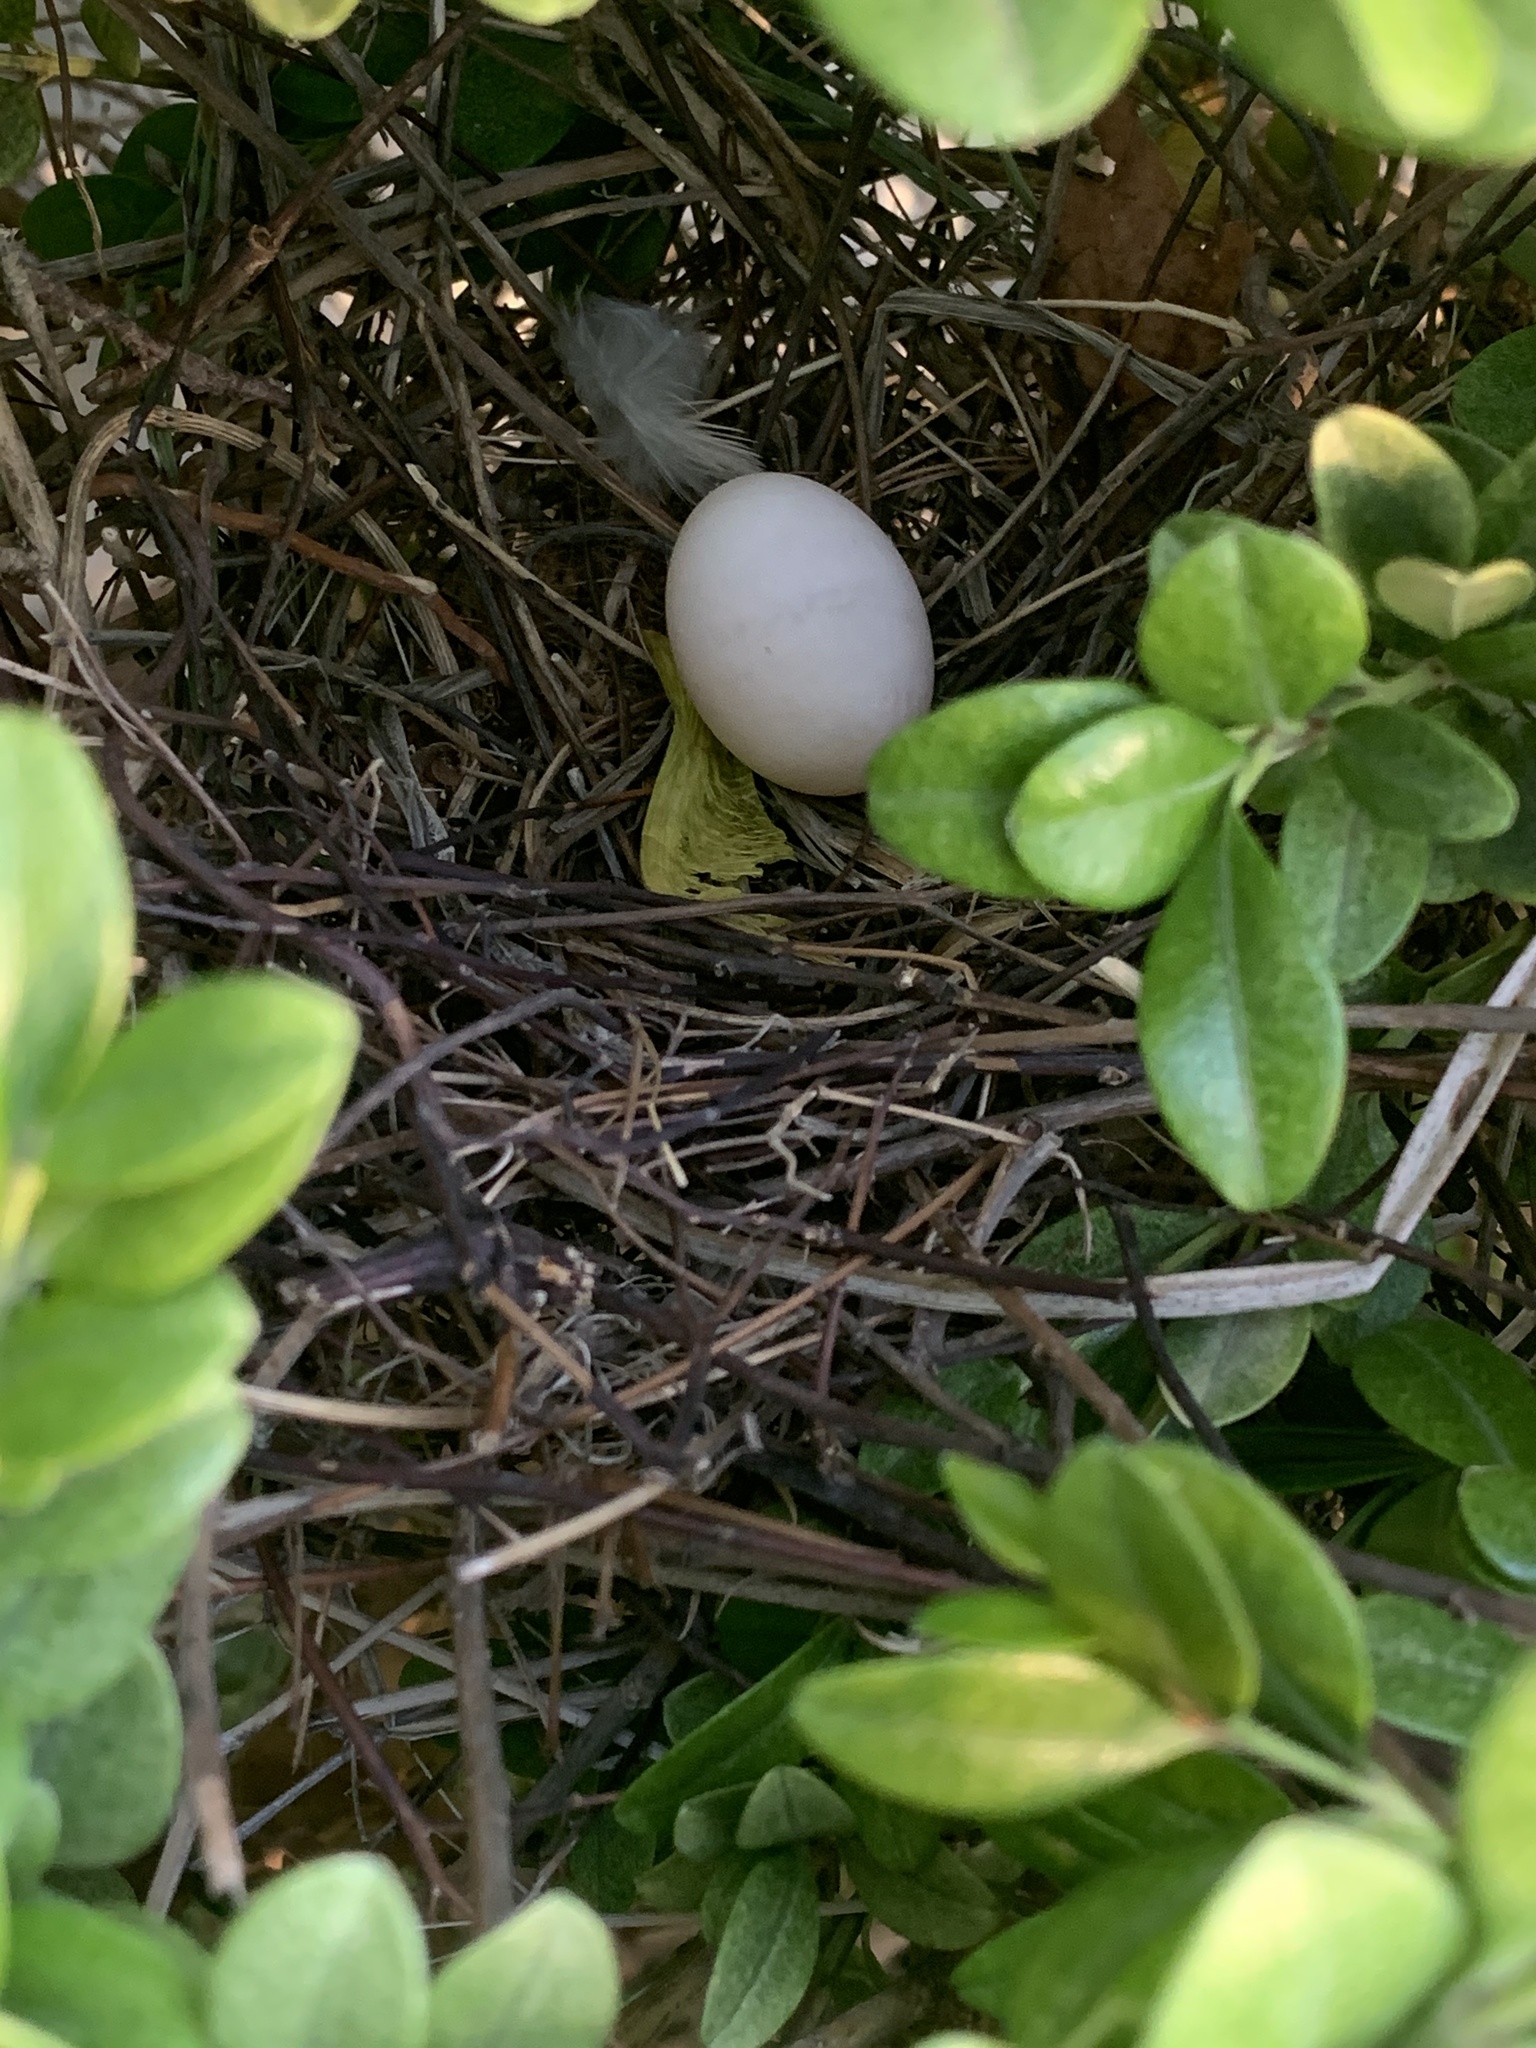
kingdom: Animalia
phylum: Chordata
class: Aves
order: Columbiformes
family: Columbidae
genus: Zenaida
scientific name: Zenaida macroura
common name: Mourning dove
